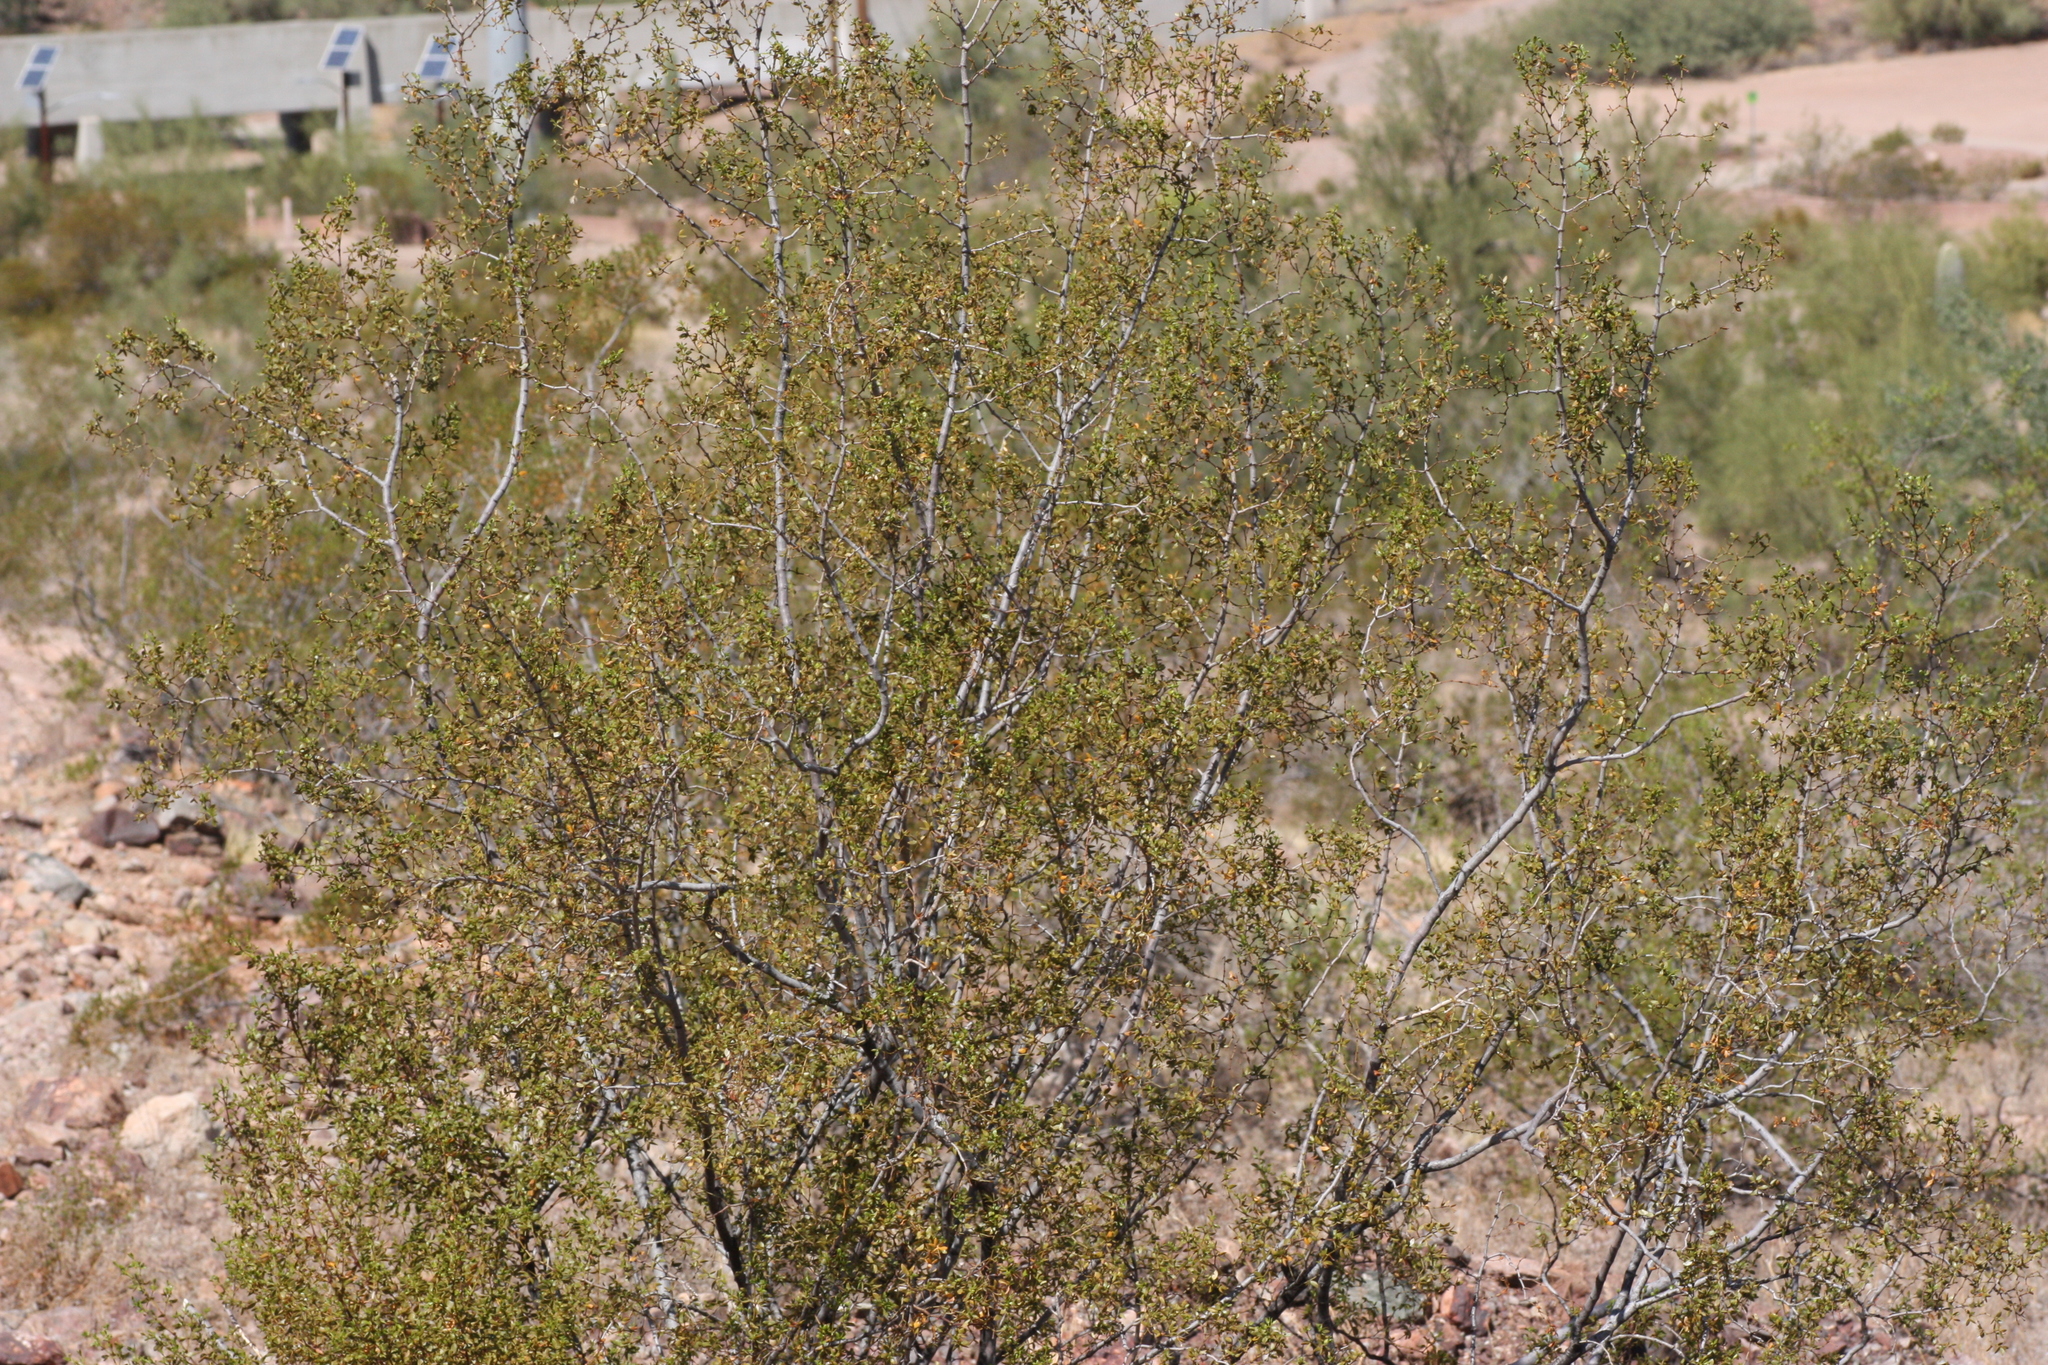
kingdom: Plantae
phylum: Tracheophyta
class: Magnoliopsida
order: Zygophyllales
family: Zygophyllaceae
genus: Larrea
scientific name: Larrea tridentata
